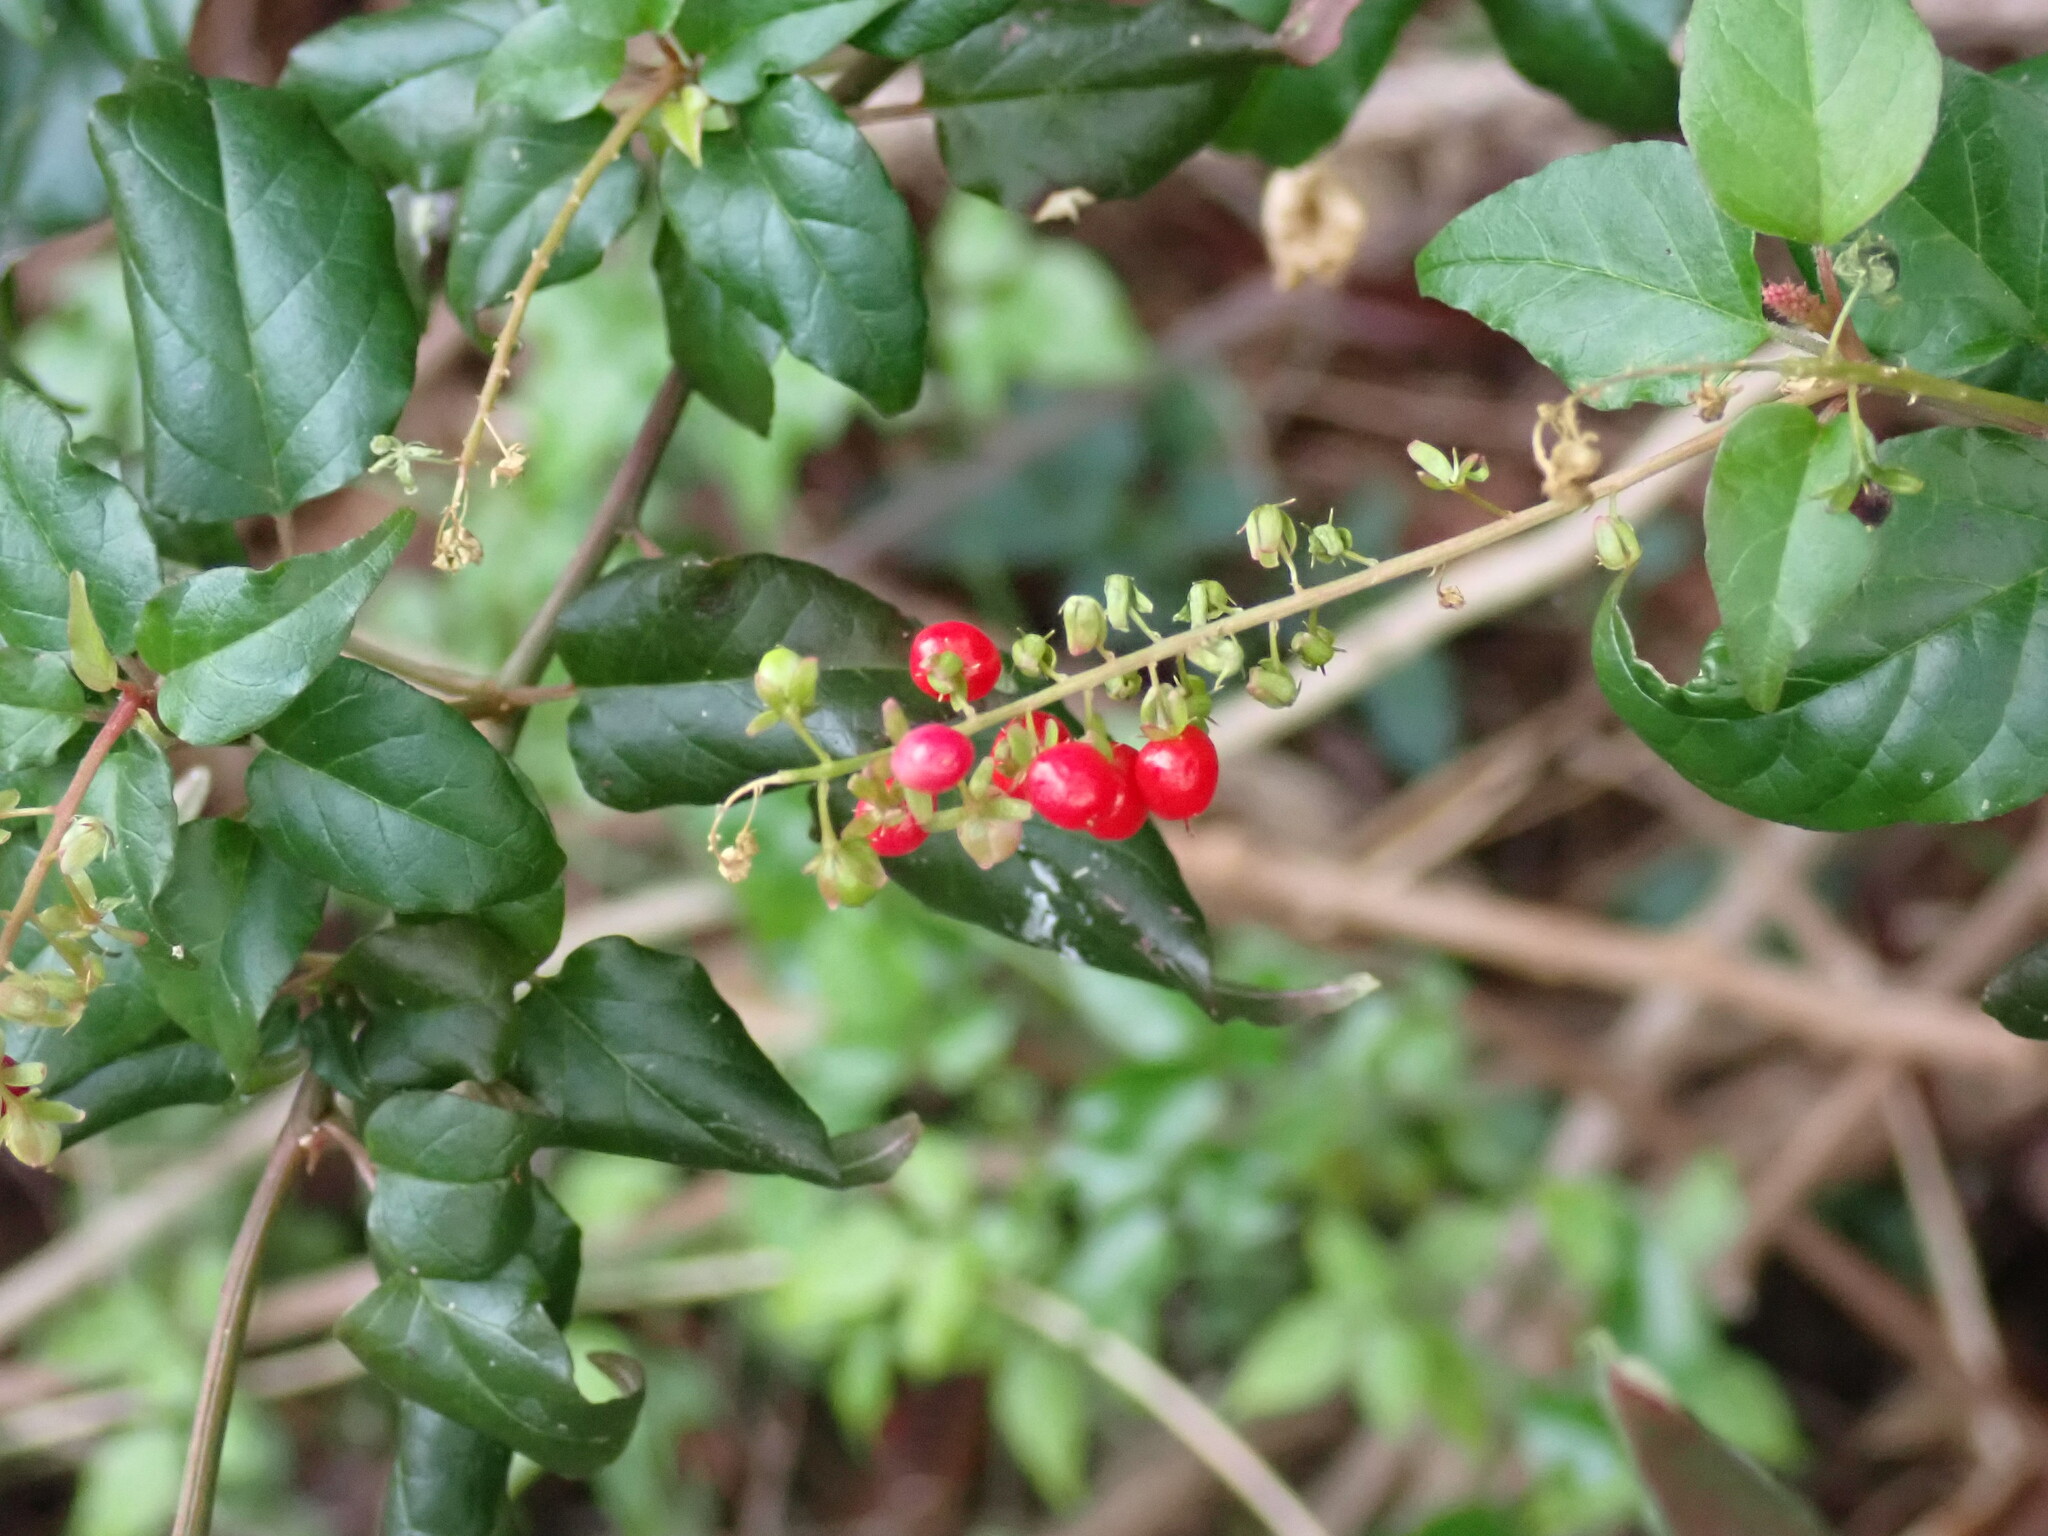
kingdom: Plantae
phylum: Tracheophyta
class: Magnoliopsida
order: Caryophyllales
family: Phytolaccaceae
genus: Rivina
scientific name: Rivina humilis
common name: Rougeplant
